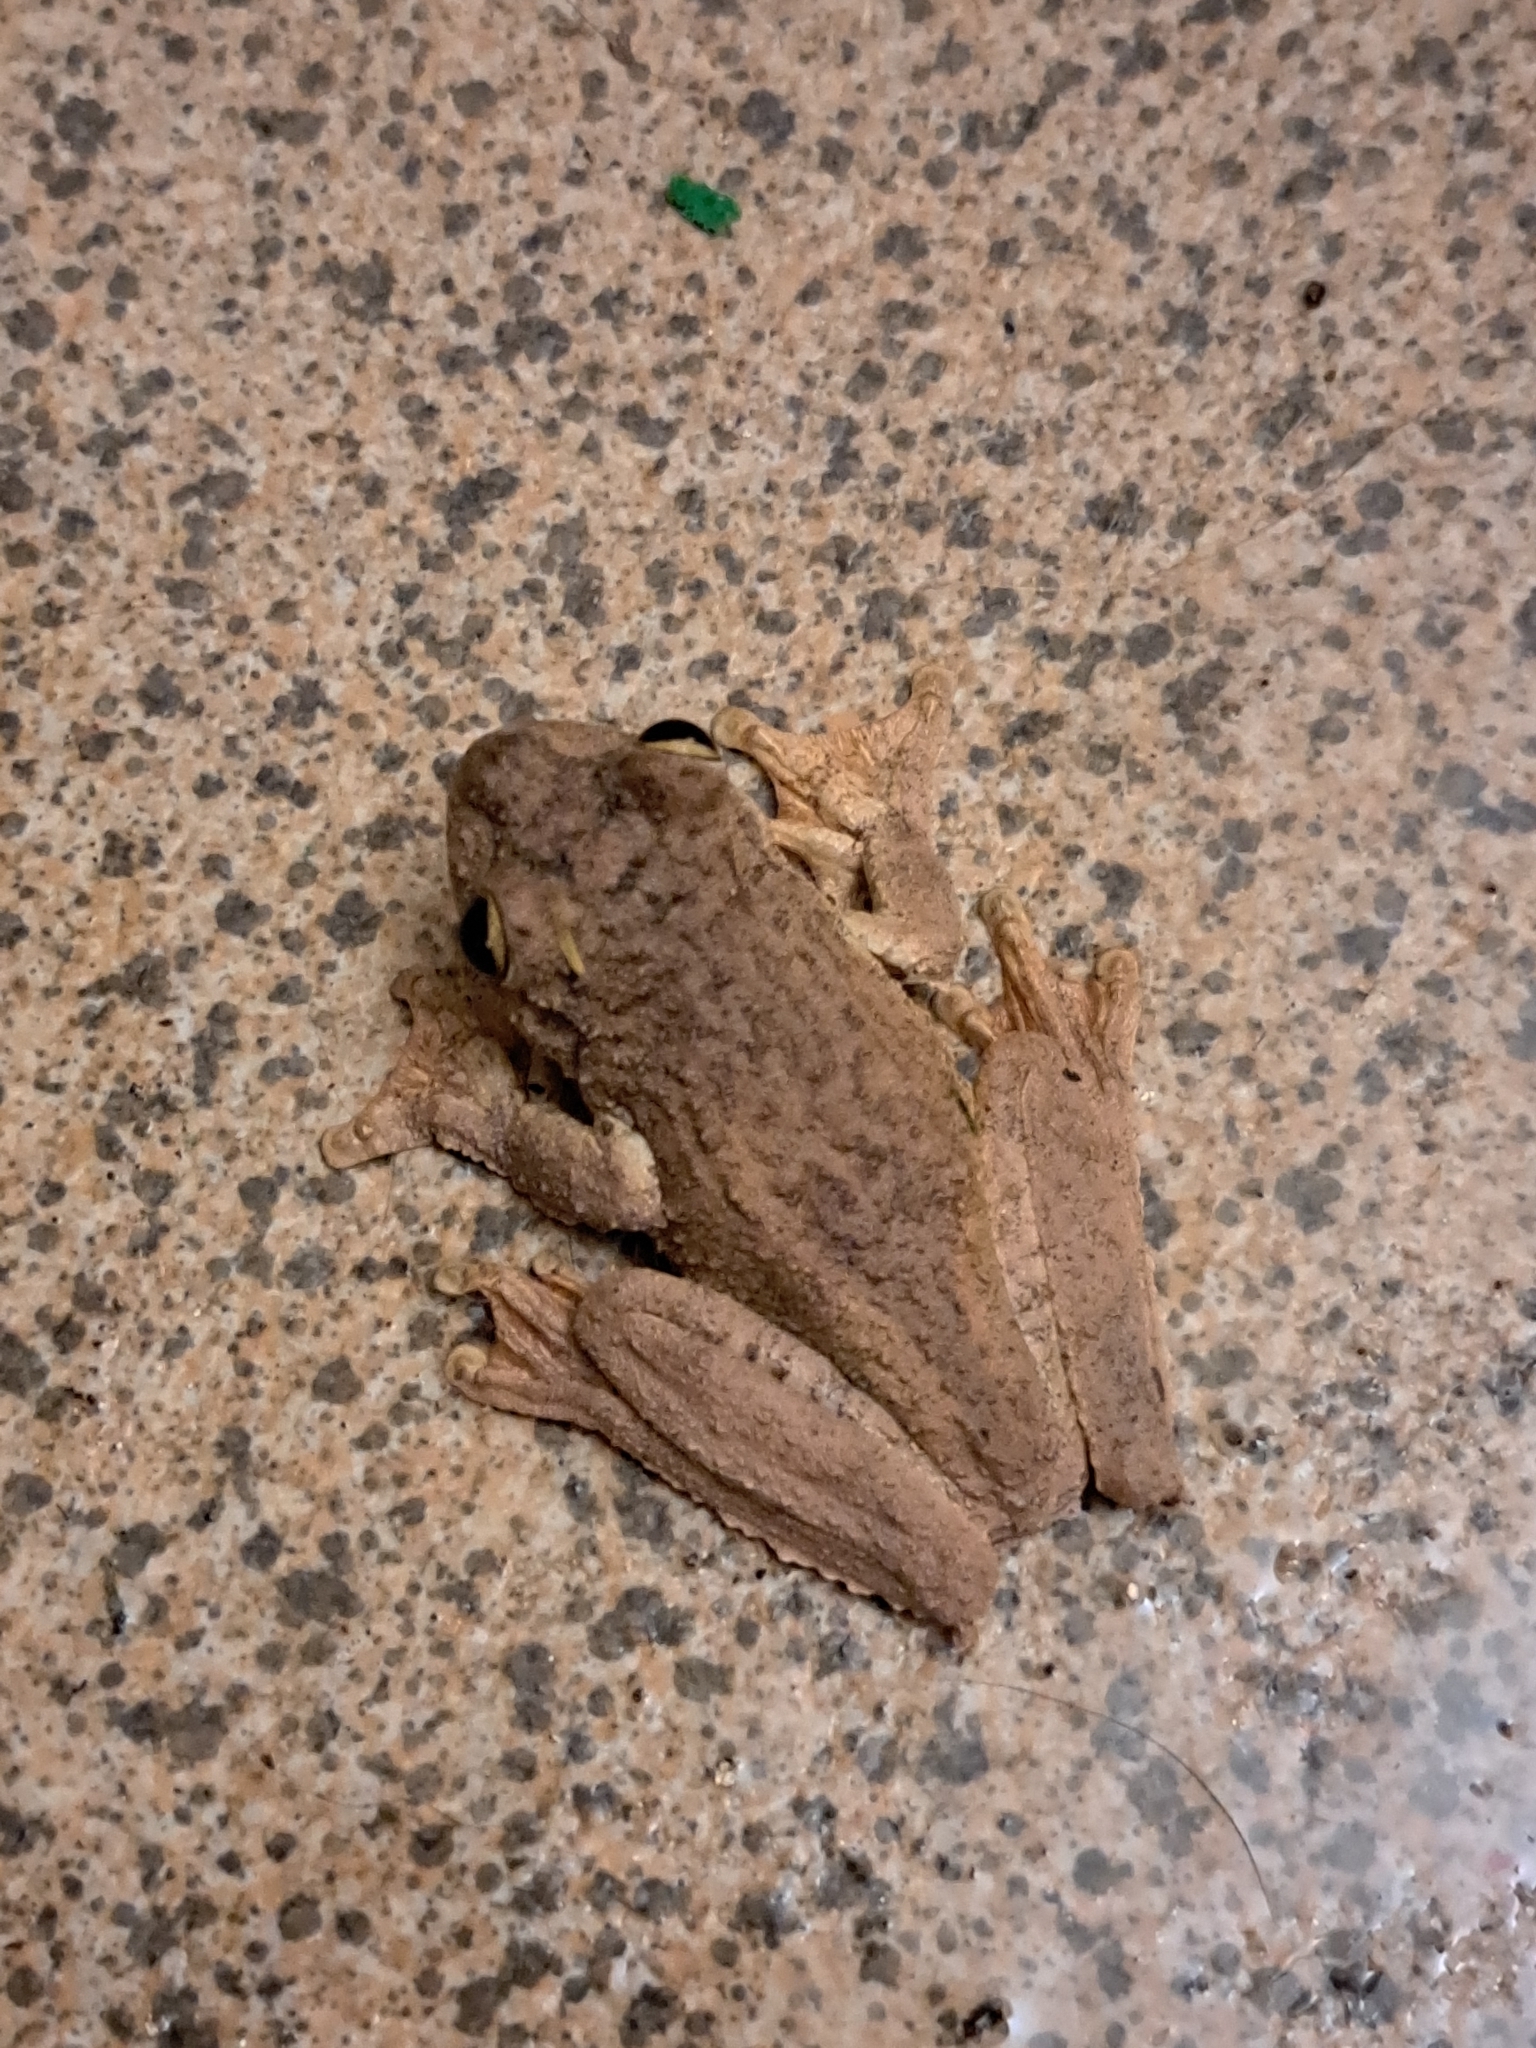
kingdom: Animalia
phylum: Chordata
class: Amphibia
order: Anura
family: Hylidae
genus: Boana
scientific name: Boana pardalis
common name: Leopard treefrog
